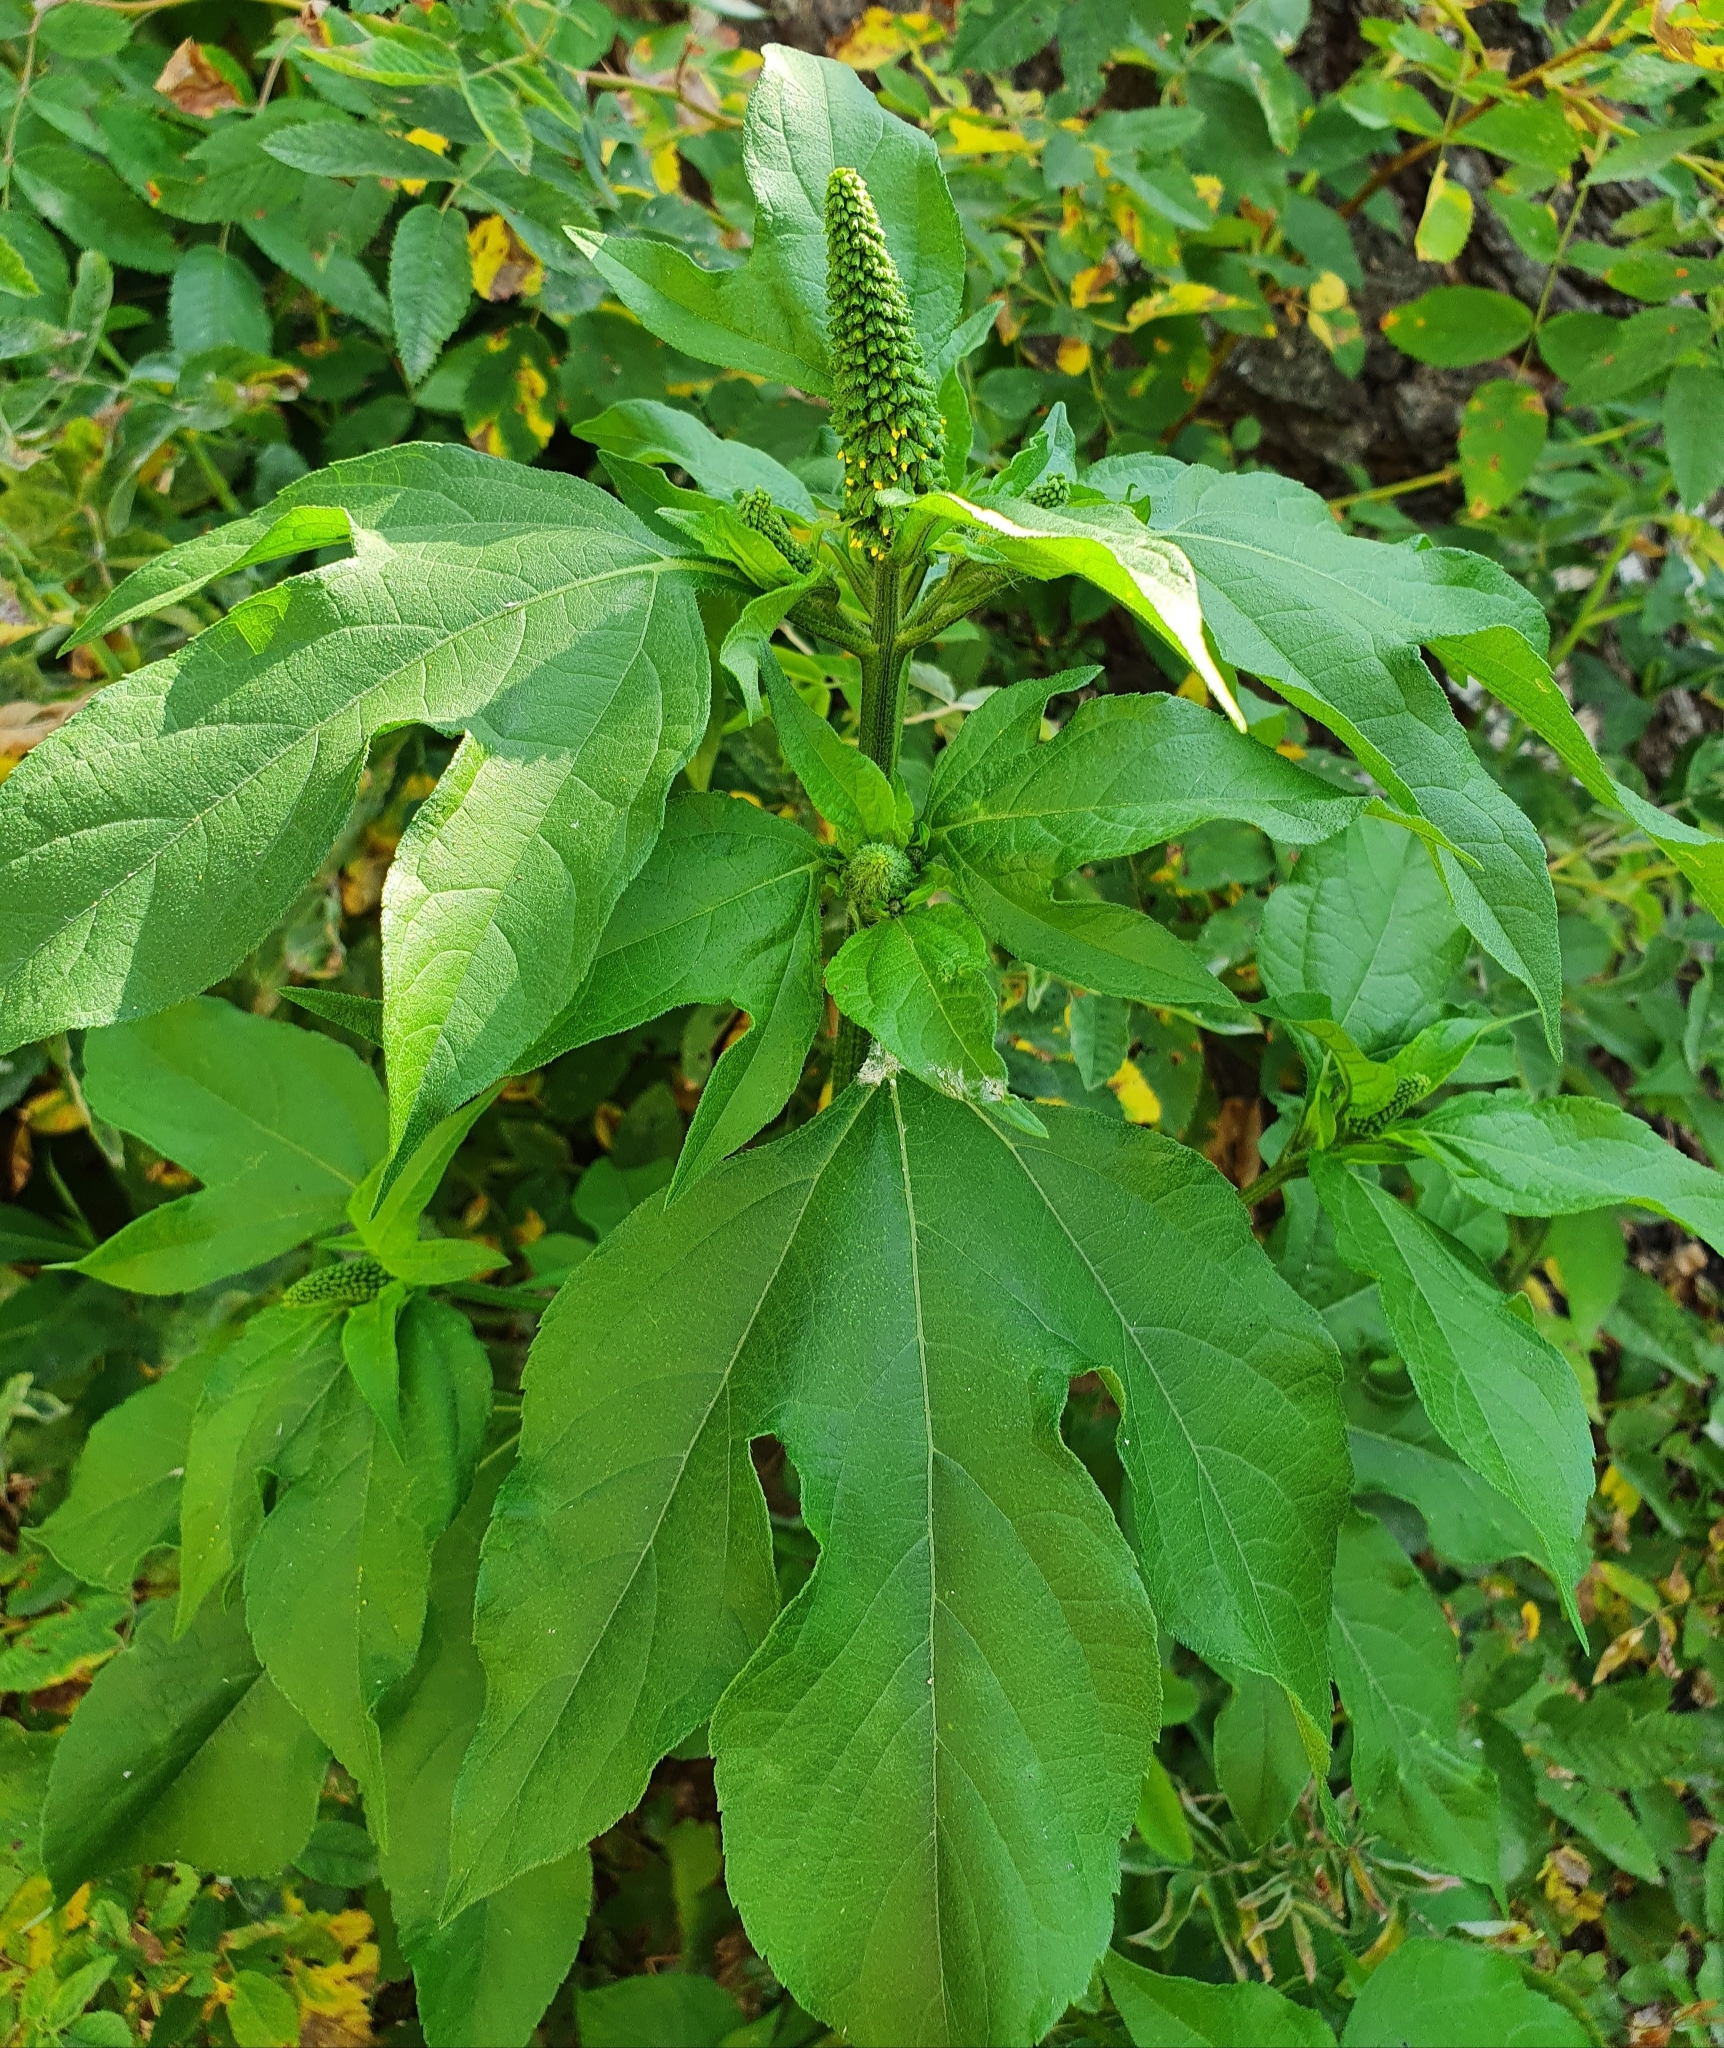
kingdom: Plantae
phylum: Tracheophyta
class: Magnoliopsida
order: Asterales
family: Asteraceae
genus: Ambrosia
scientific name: Ambrosia trifida
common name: Giant ragweed
